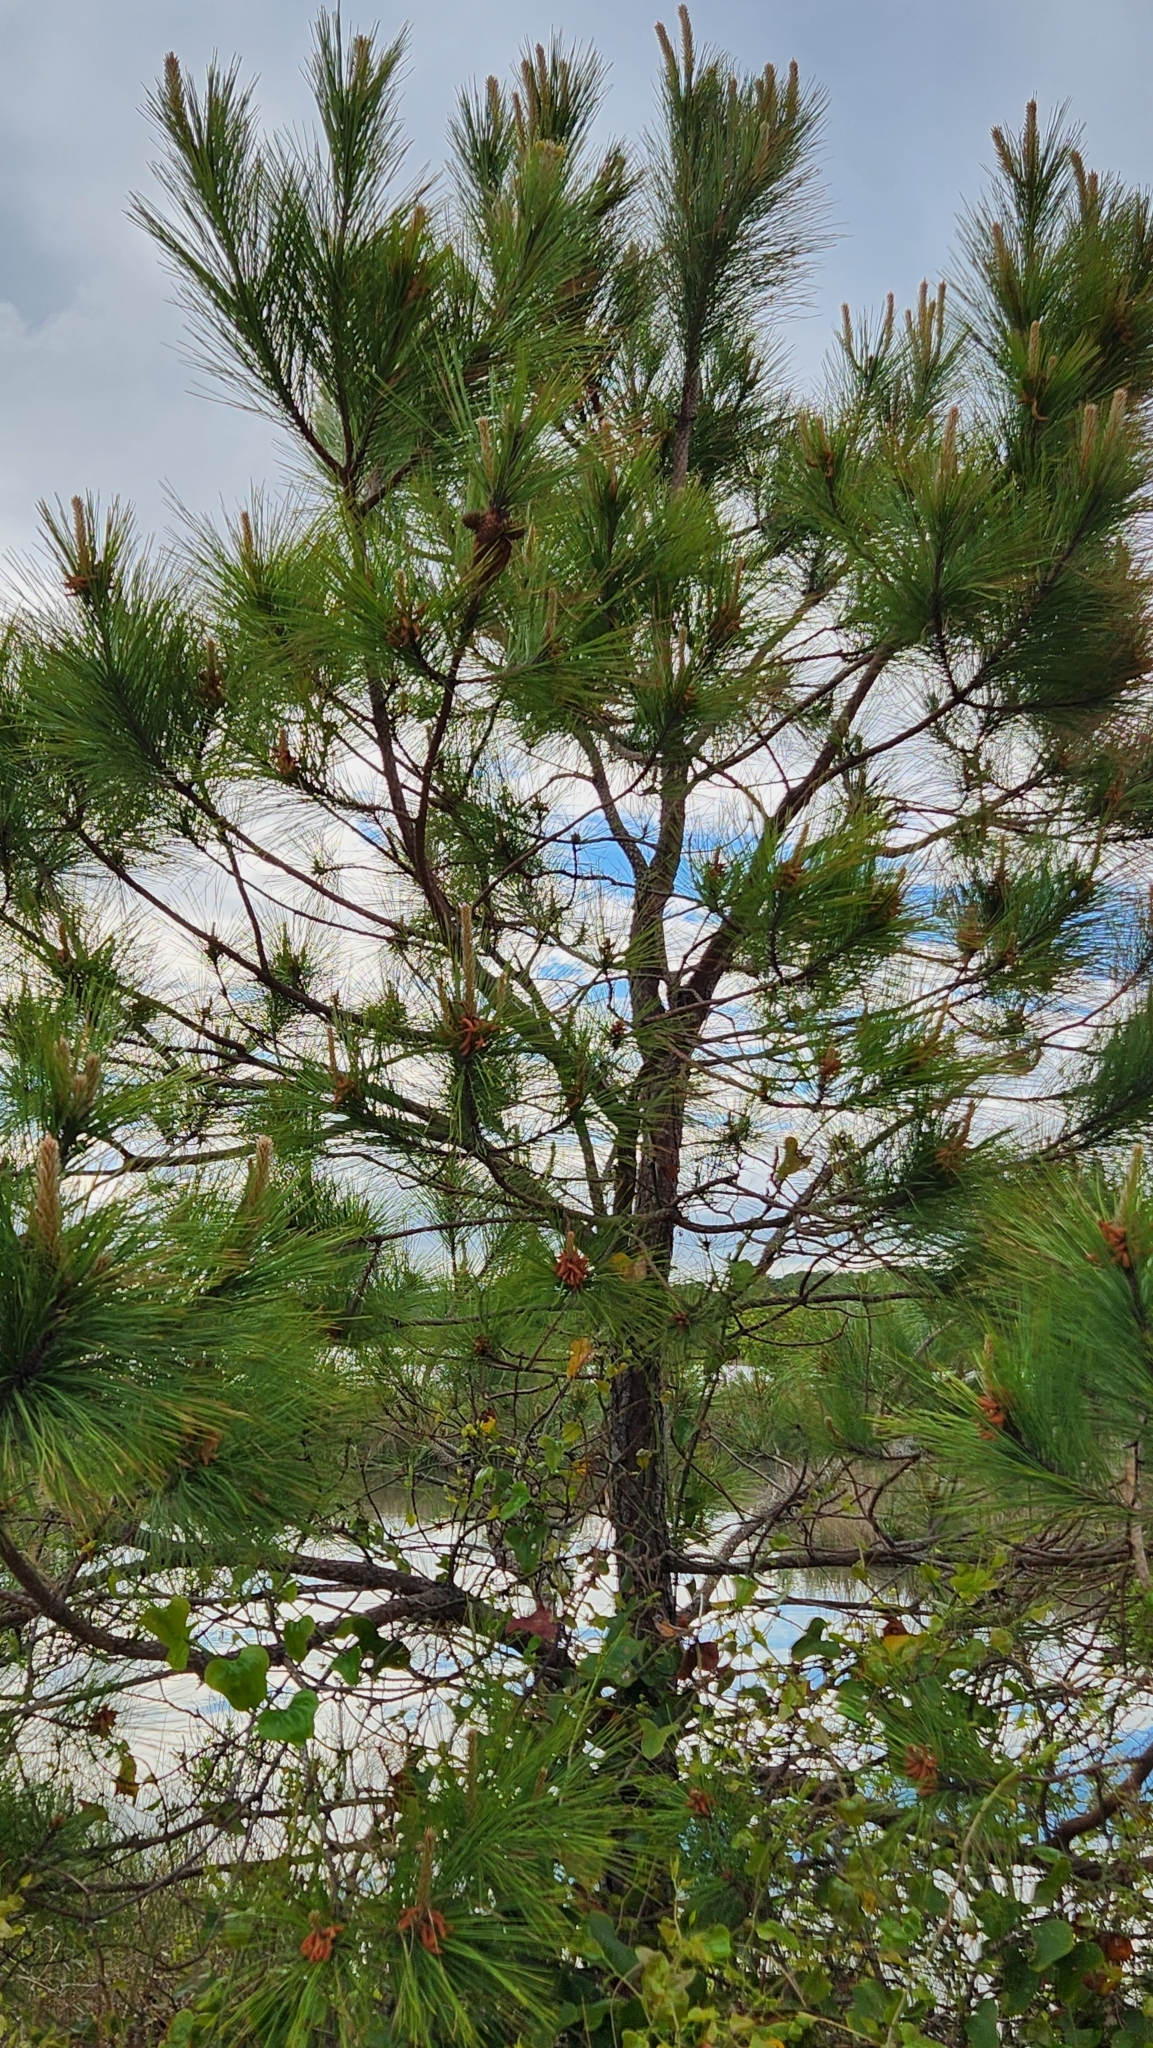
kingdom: Plantae
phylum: Tracheophyta
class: Pinopsida
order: Pinales
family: Pinaceae
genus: Pinus
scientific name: Pinus taeda
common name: Loblolly pine
